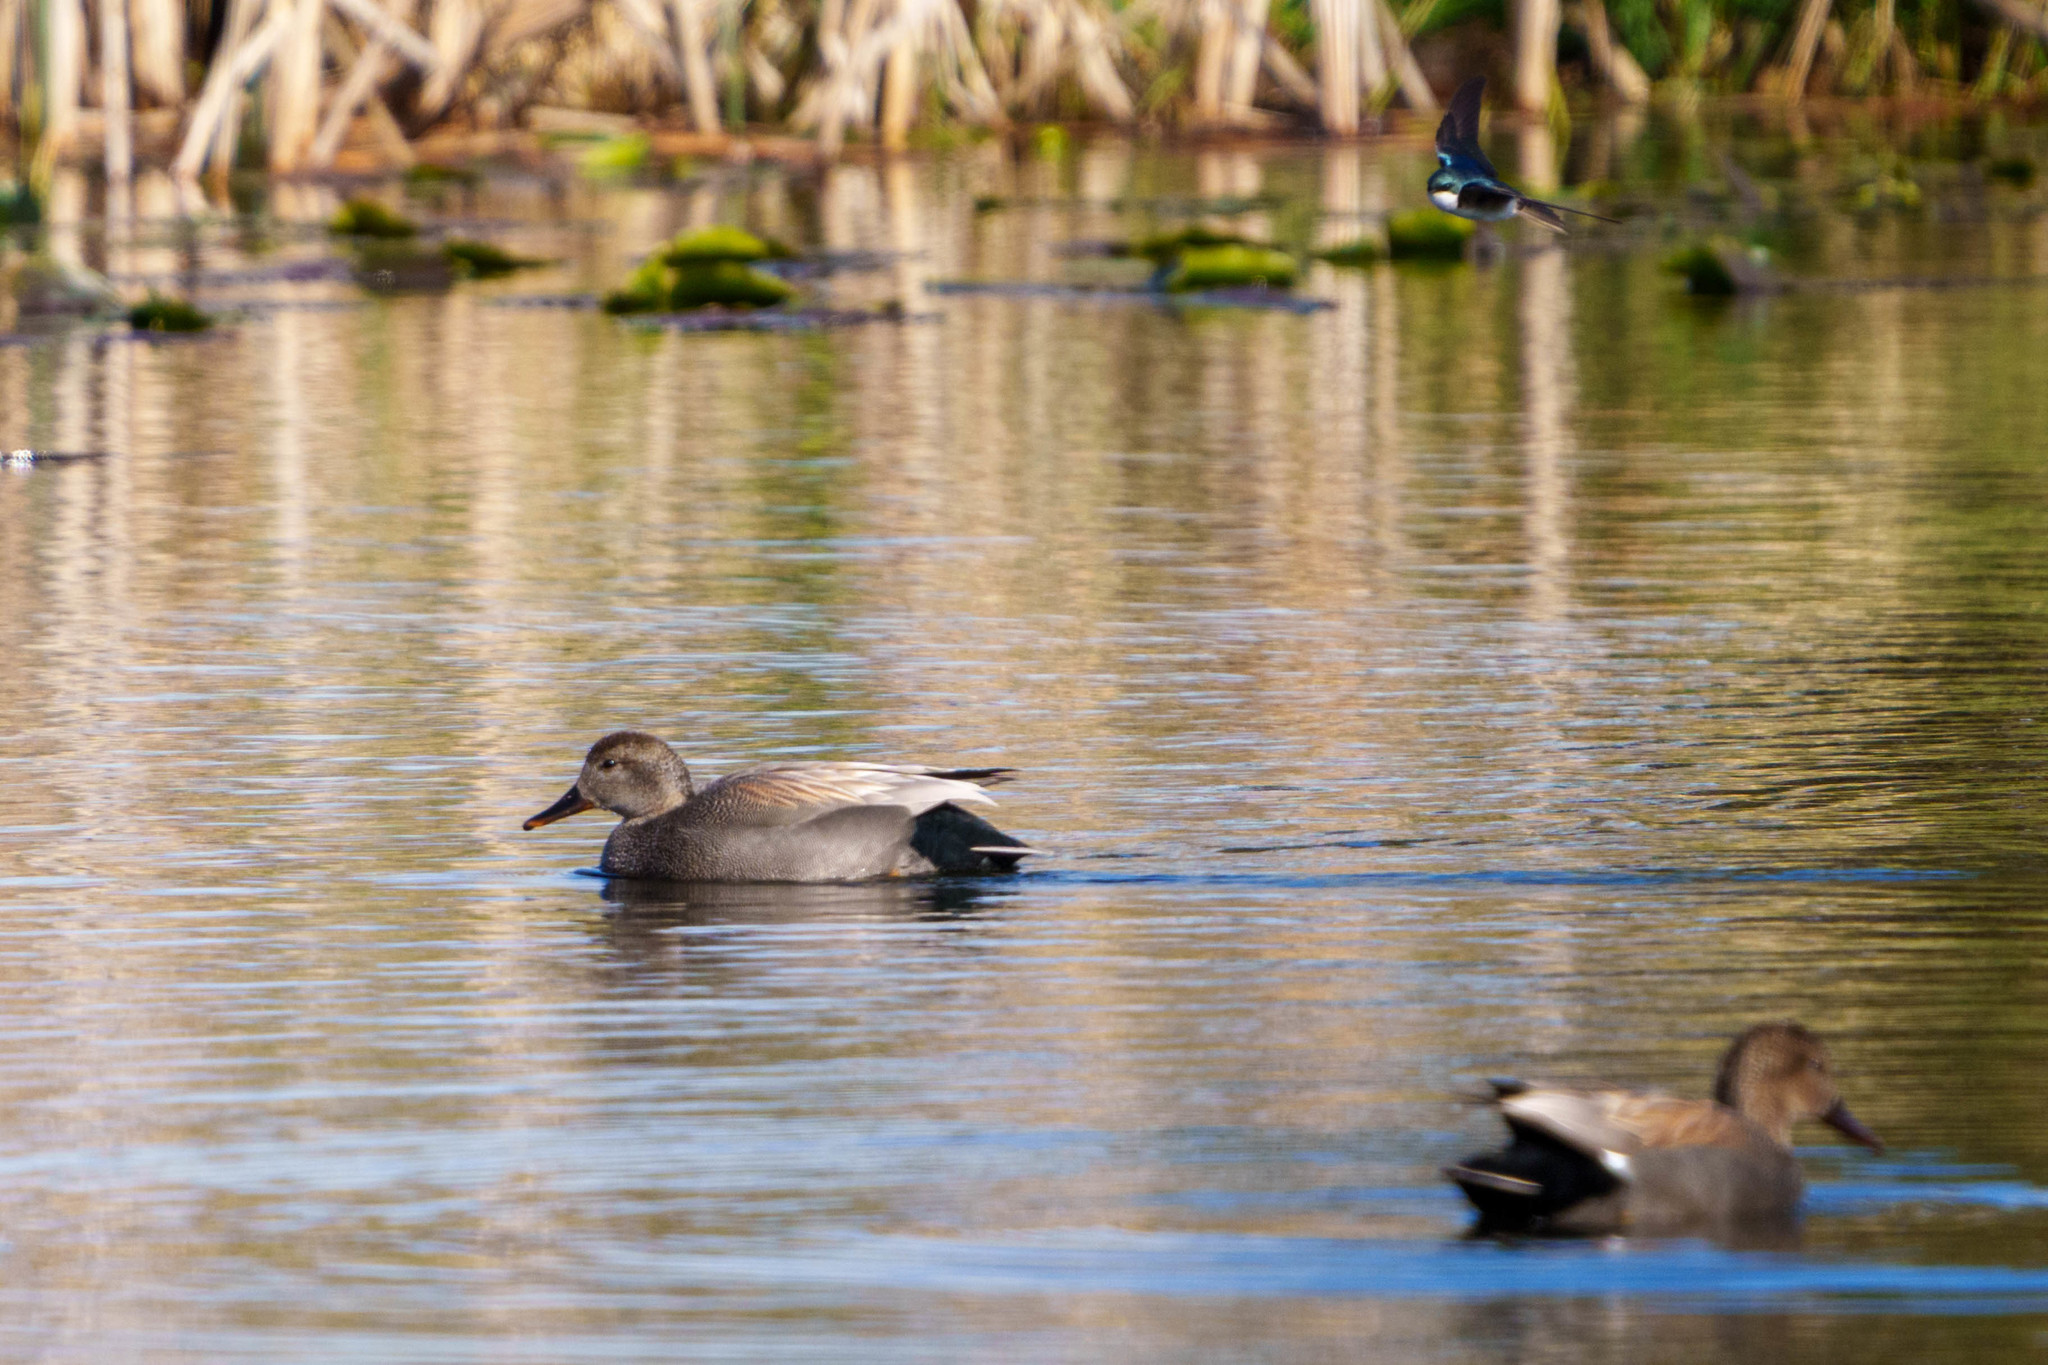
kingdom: Animalia
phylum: Chordata
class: Aves
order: Anseriformes
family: Anatidae
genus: Mareca
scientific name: Mareca strepera
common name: Gadwall
